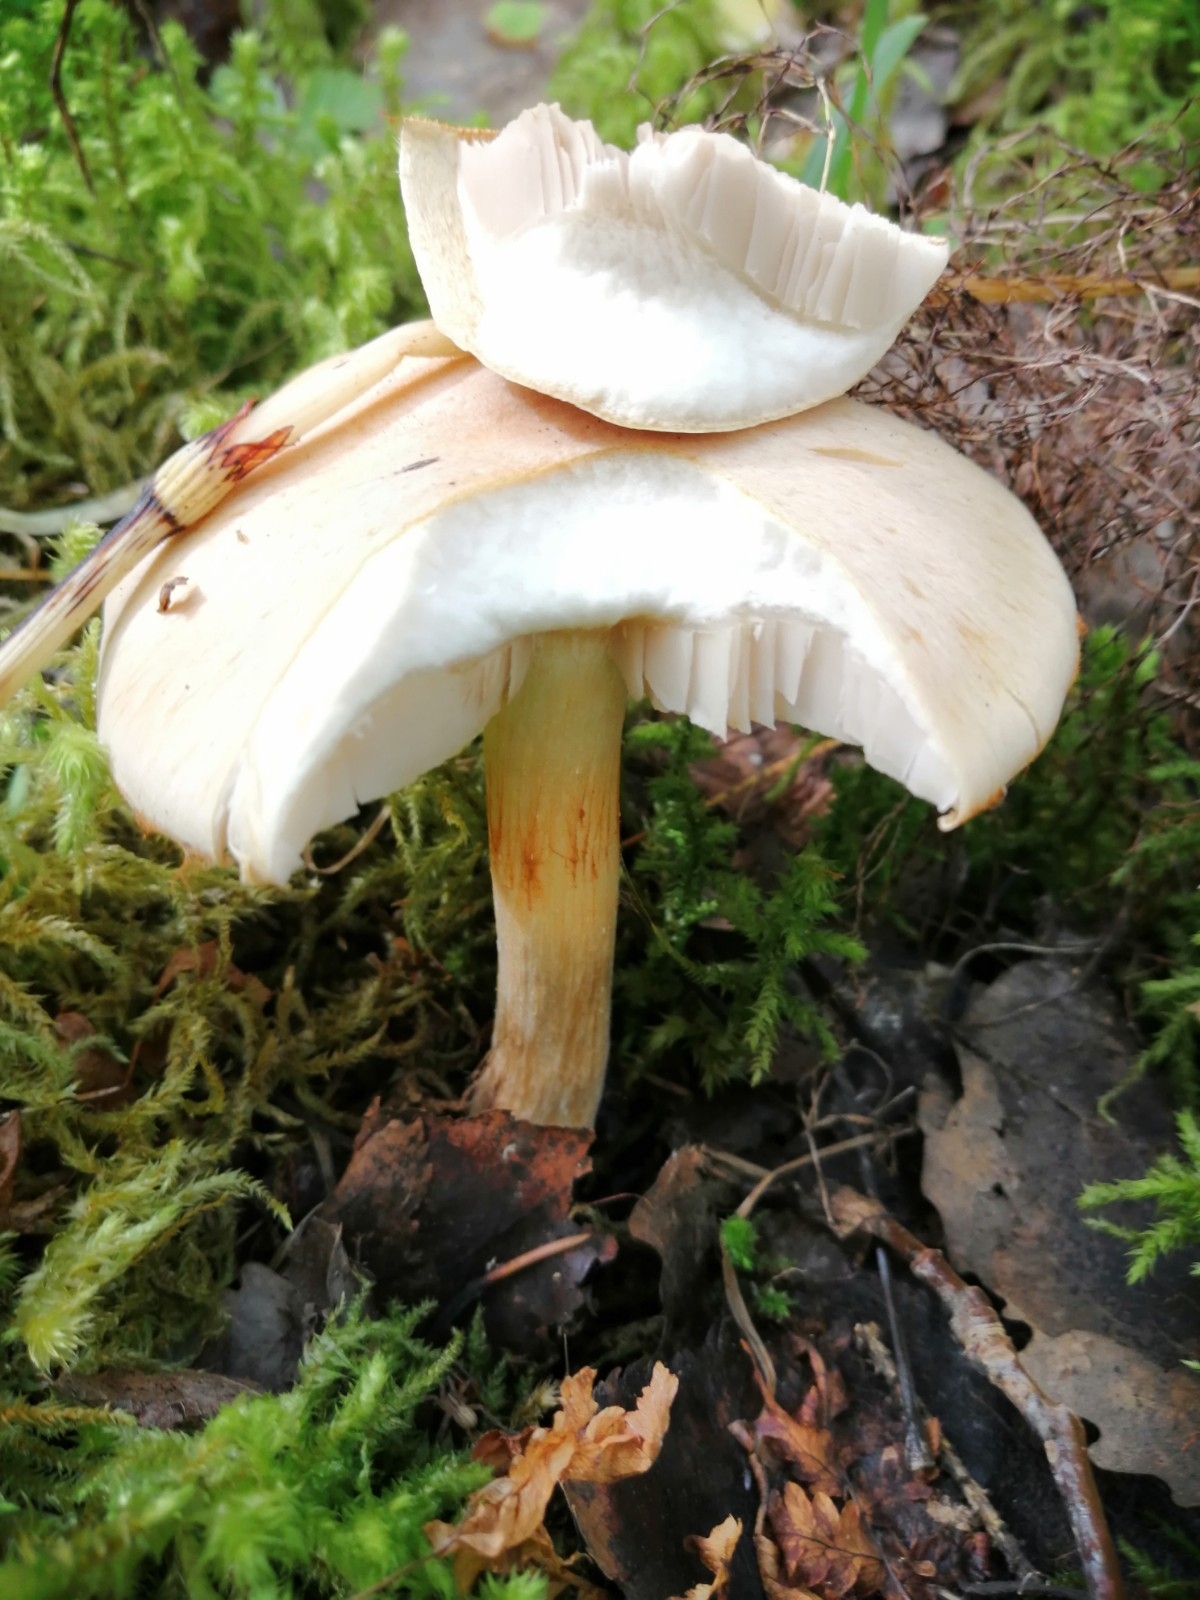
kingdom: Fungi
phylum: Basidiomycota
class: Agaricomycetes
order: Agaricales
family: Tricholomataceae
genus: Leucocortinarius
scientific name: Leucocortinarius bulbiger
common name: White webcap
